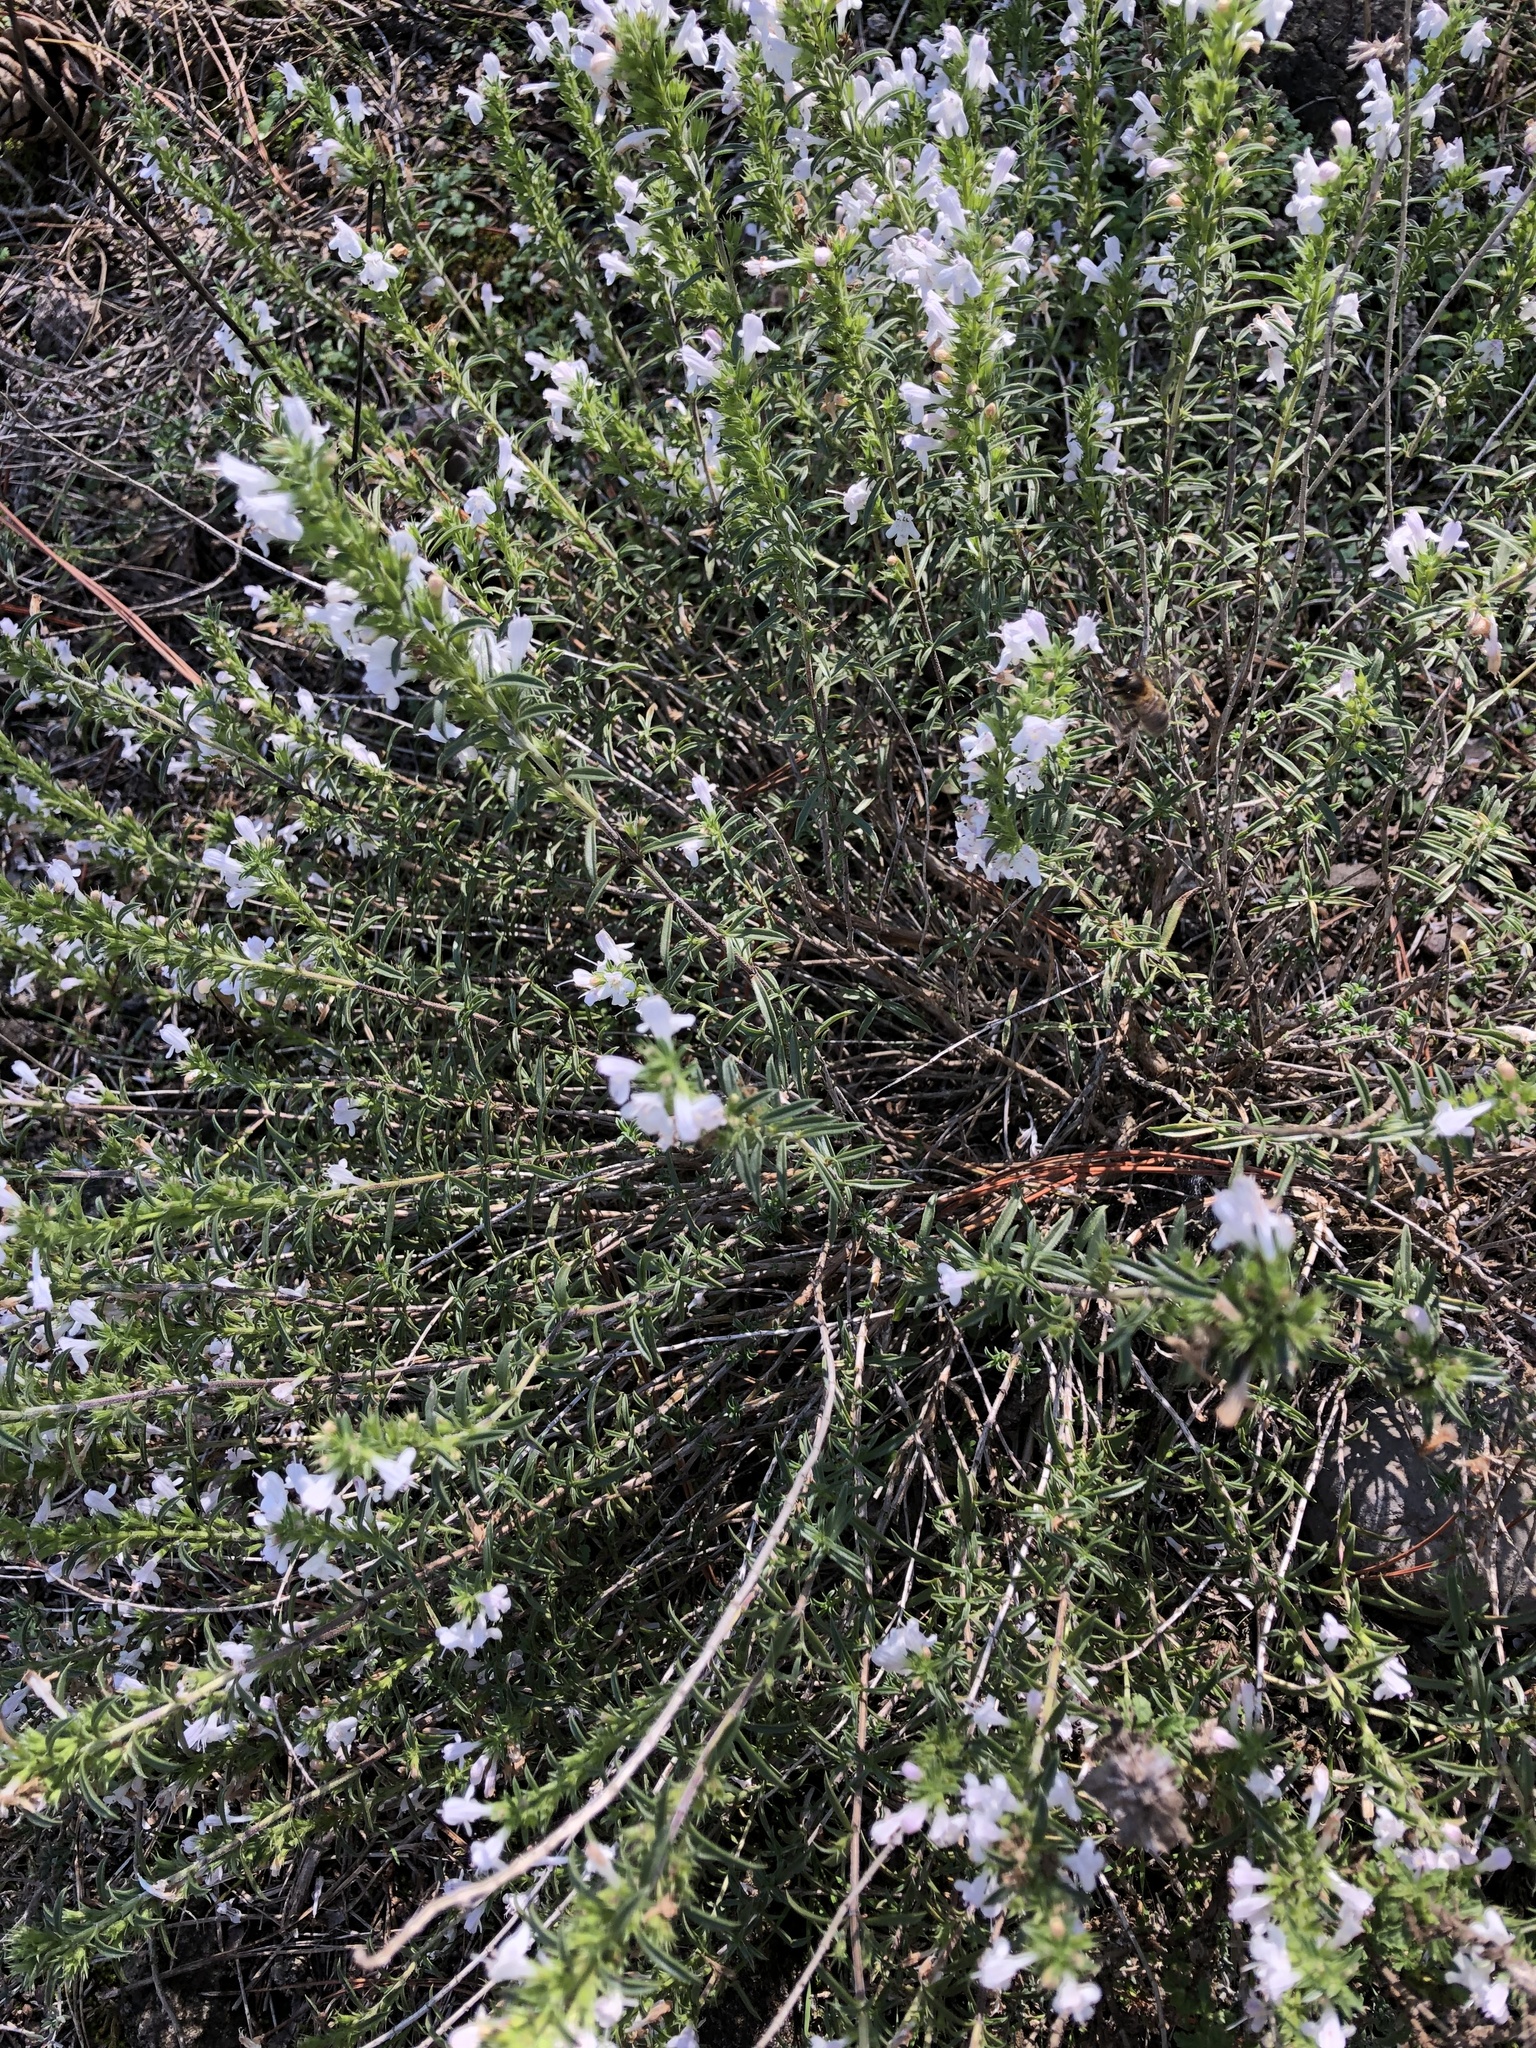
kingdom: Plantae
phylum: Tracheophyta
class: Magnoliopsida
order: Lamiales
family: Lamiaceae
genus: Satureja
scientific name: Satureja montana
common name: Winter savory
